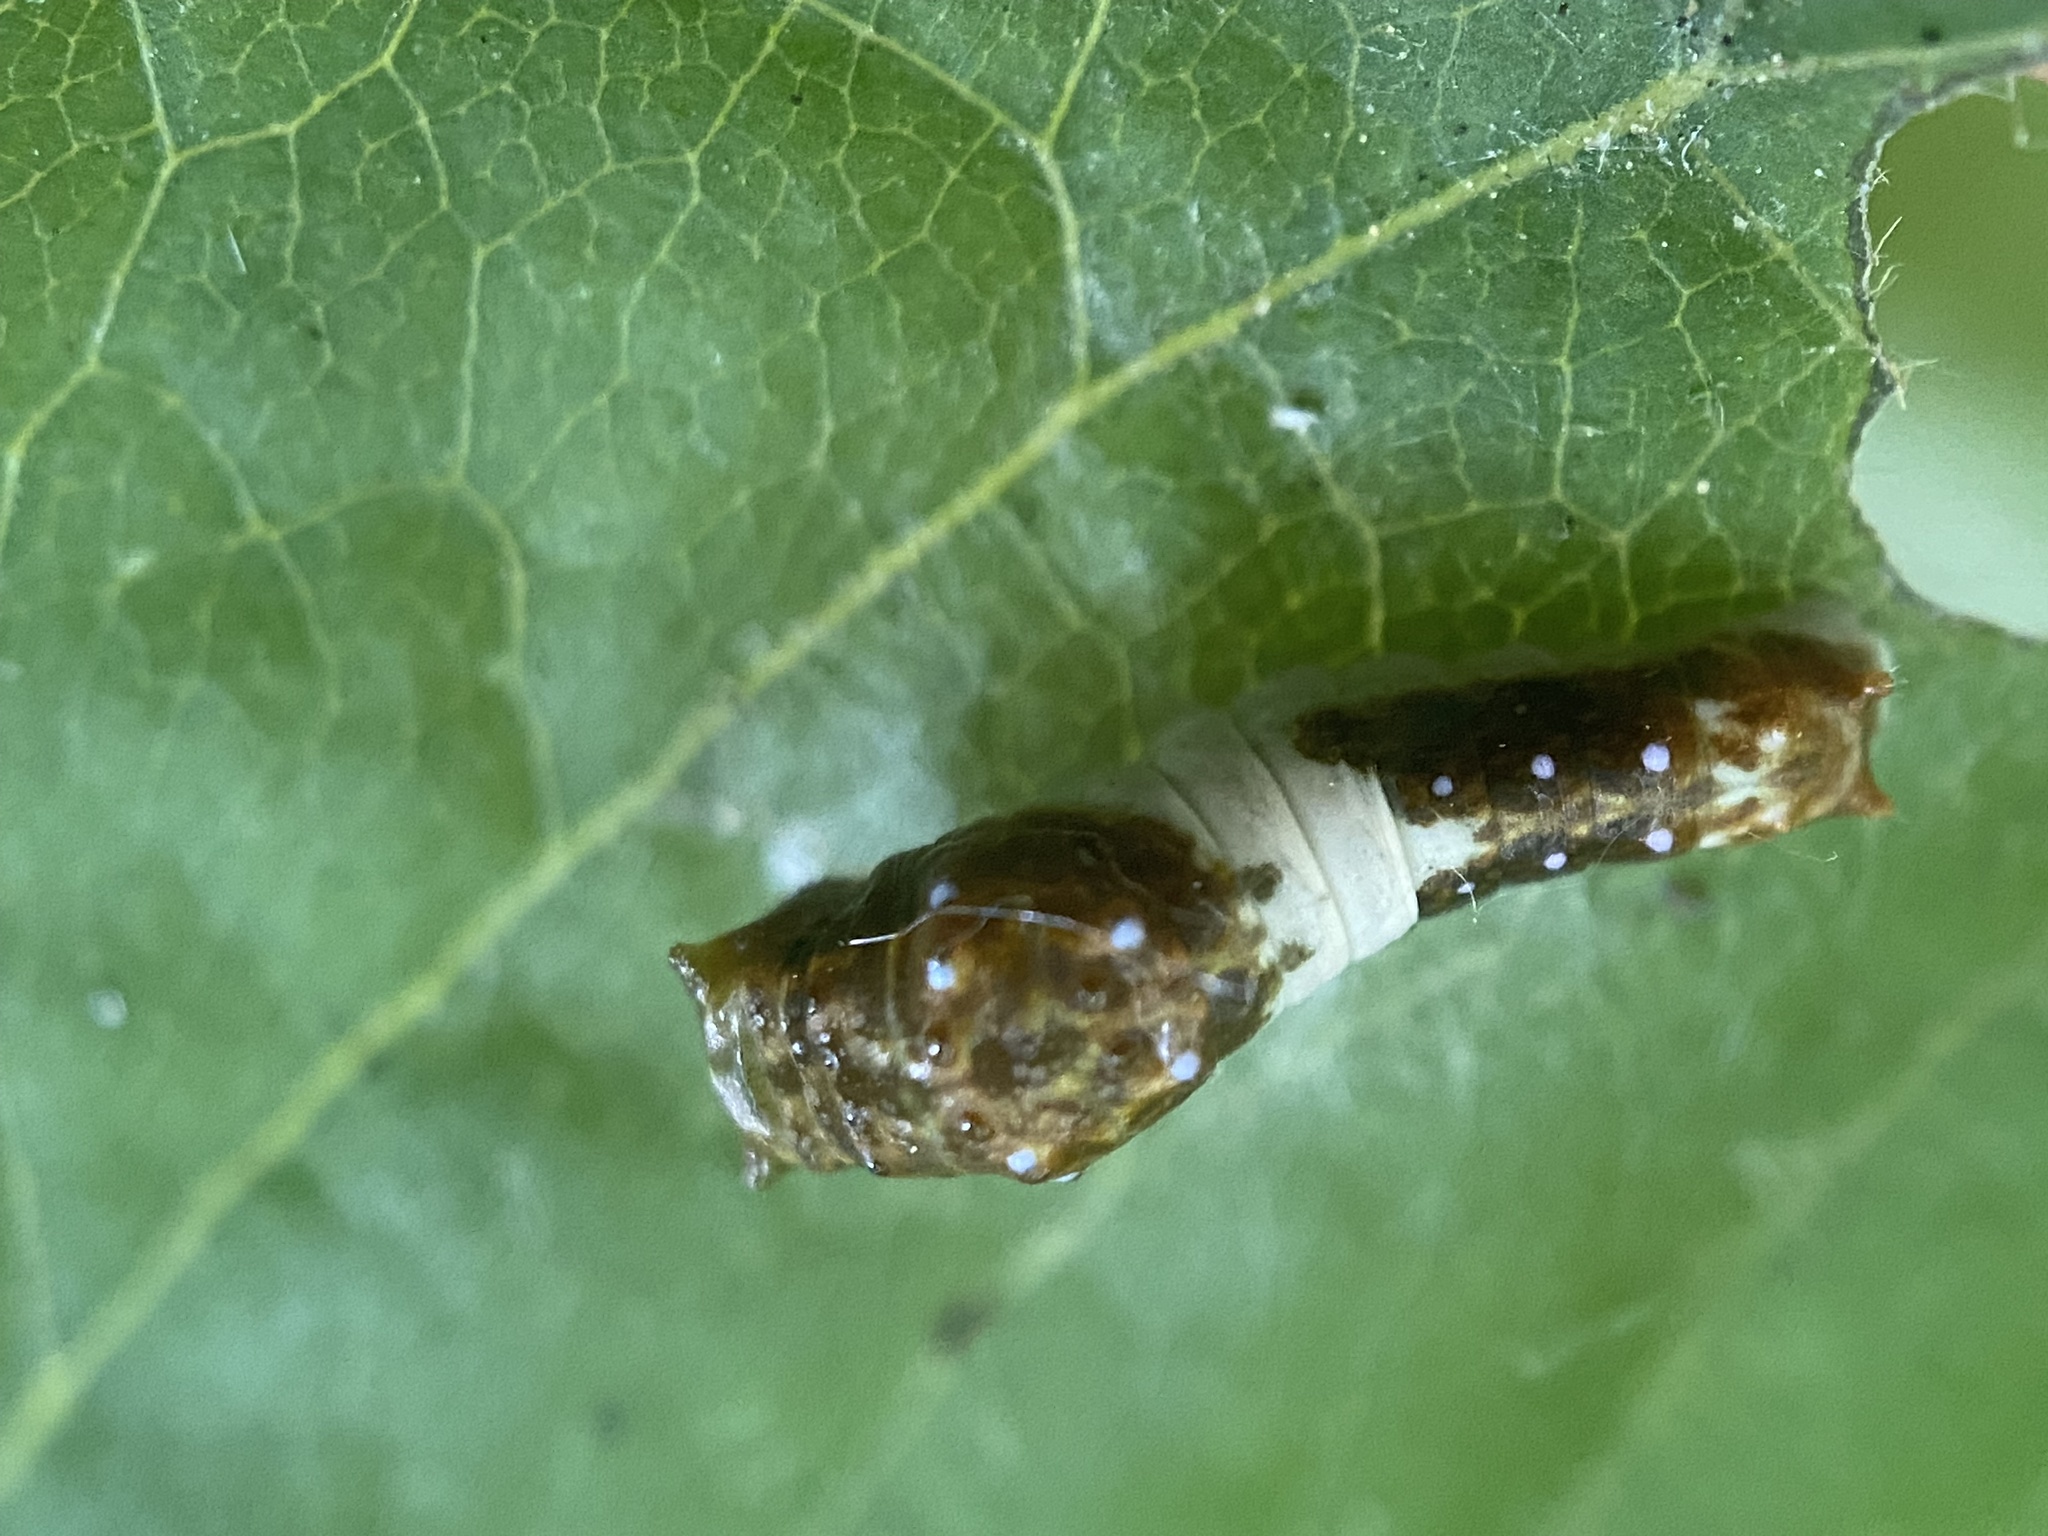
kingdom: Animalia
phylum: Arthropoda
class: Insecta
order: Lepidoptera
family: Papilionidae
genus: Papilio
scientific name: Papilio glaucus
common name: Tiger swallowtail
